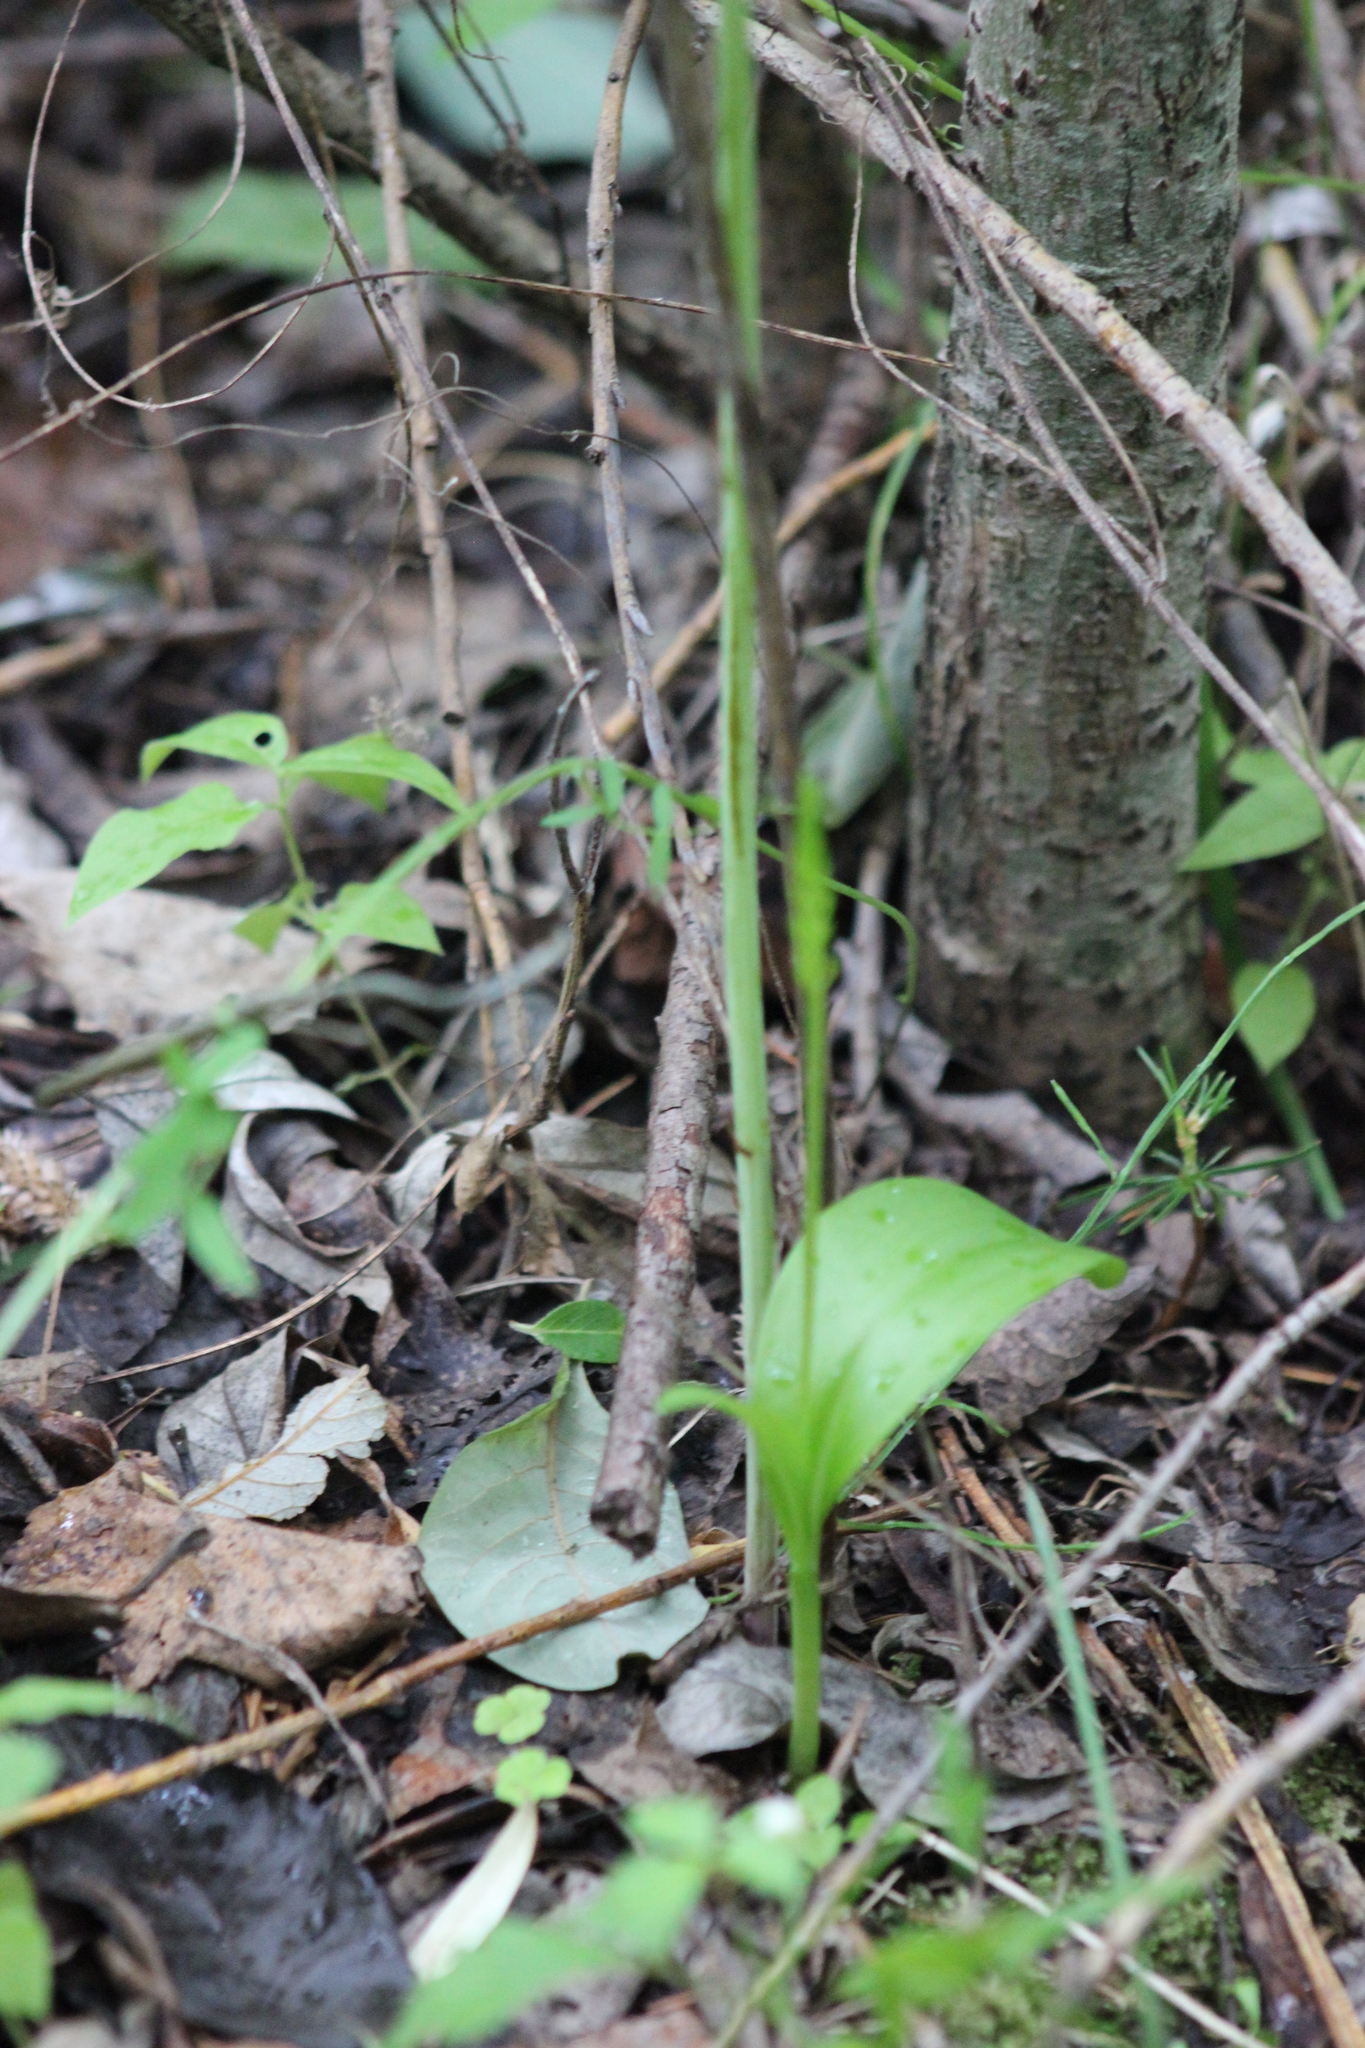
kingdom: Plantae
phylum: Tracheophyta
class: Liliopsida
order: Asparagales
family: Orchidaceae
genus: Malaxis
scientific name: Malaxis monophyllos
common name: White adder's-mouth
